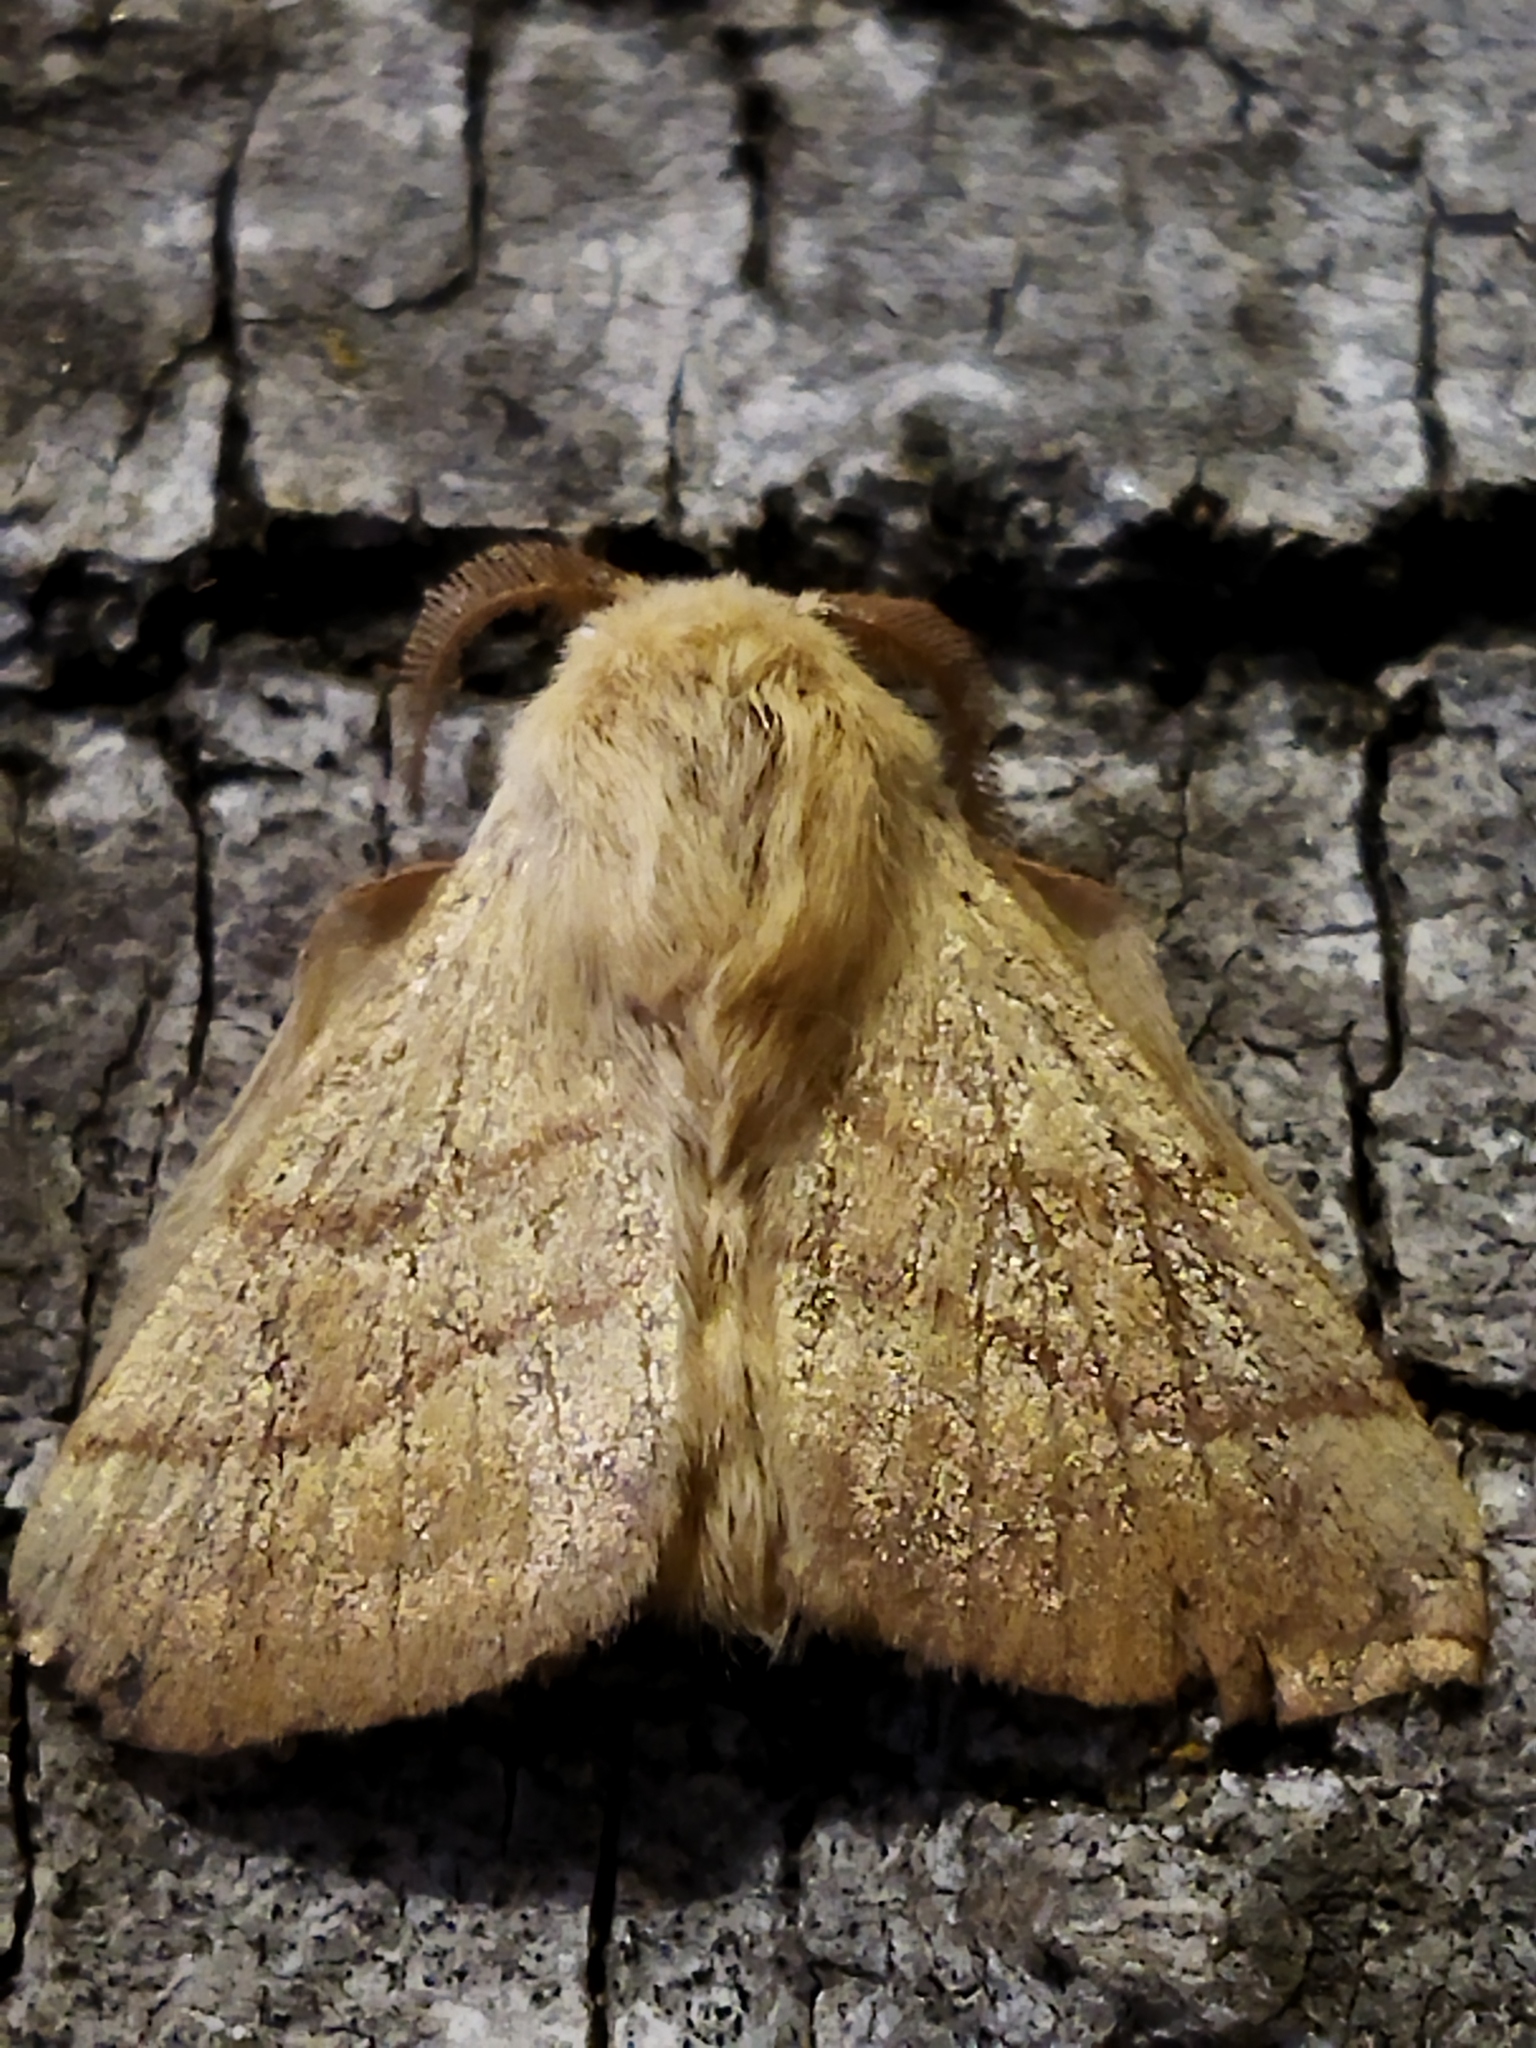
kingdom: Animalia
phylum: Arthropoda
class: Insecta
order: Lepidoptera
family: Lasiocampidae
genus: Malacosoma
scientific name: Malacosoma neustria
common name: The lackey
